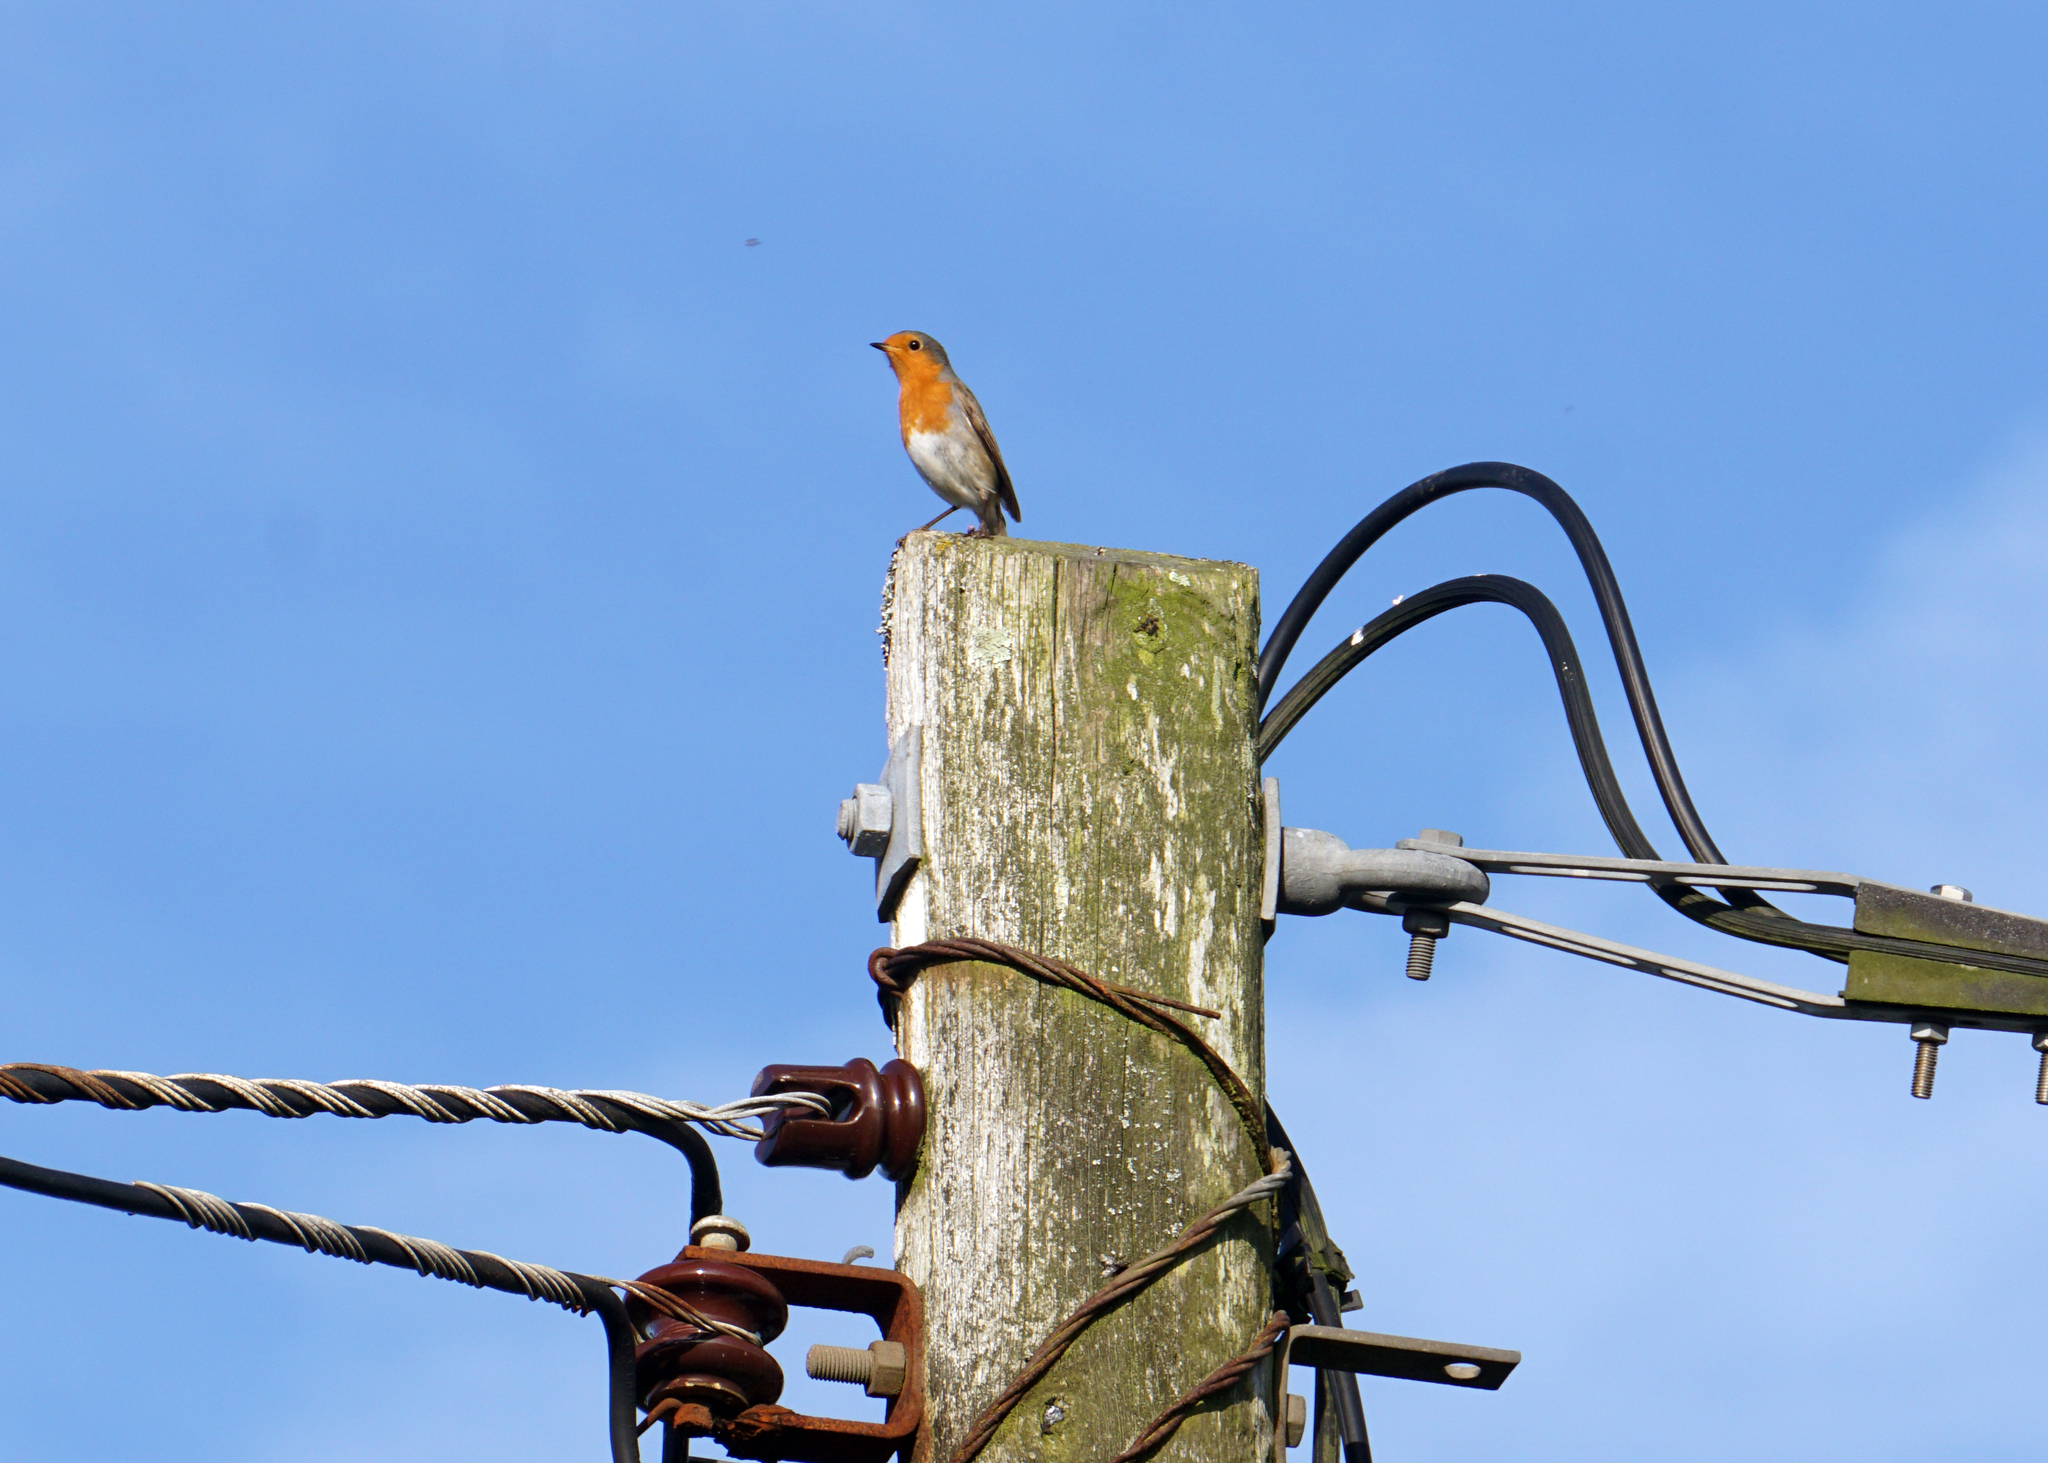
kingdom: Animalia
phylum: Chordata
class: Aves
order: Passeriformes
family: Muscicapidae
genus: Erithacus
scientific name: Erithacus rubecula
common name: European robin
